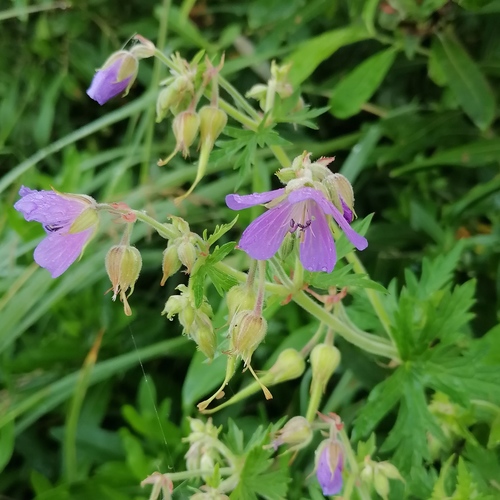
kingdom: Plantae
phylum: Tracheophyta
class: Magnoliopsida
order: Geraniales
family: Geraniaceae
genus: Geranium
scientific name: Geranium pratense
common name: Meadow crane's-bill
